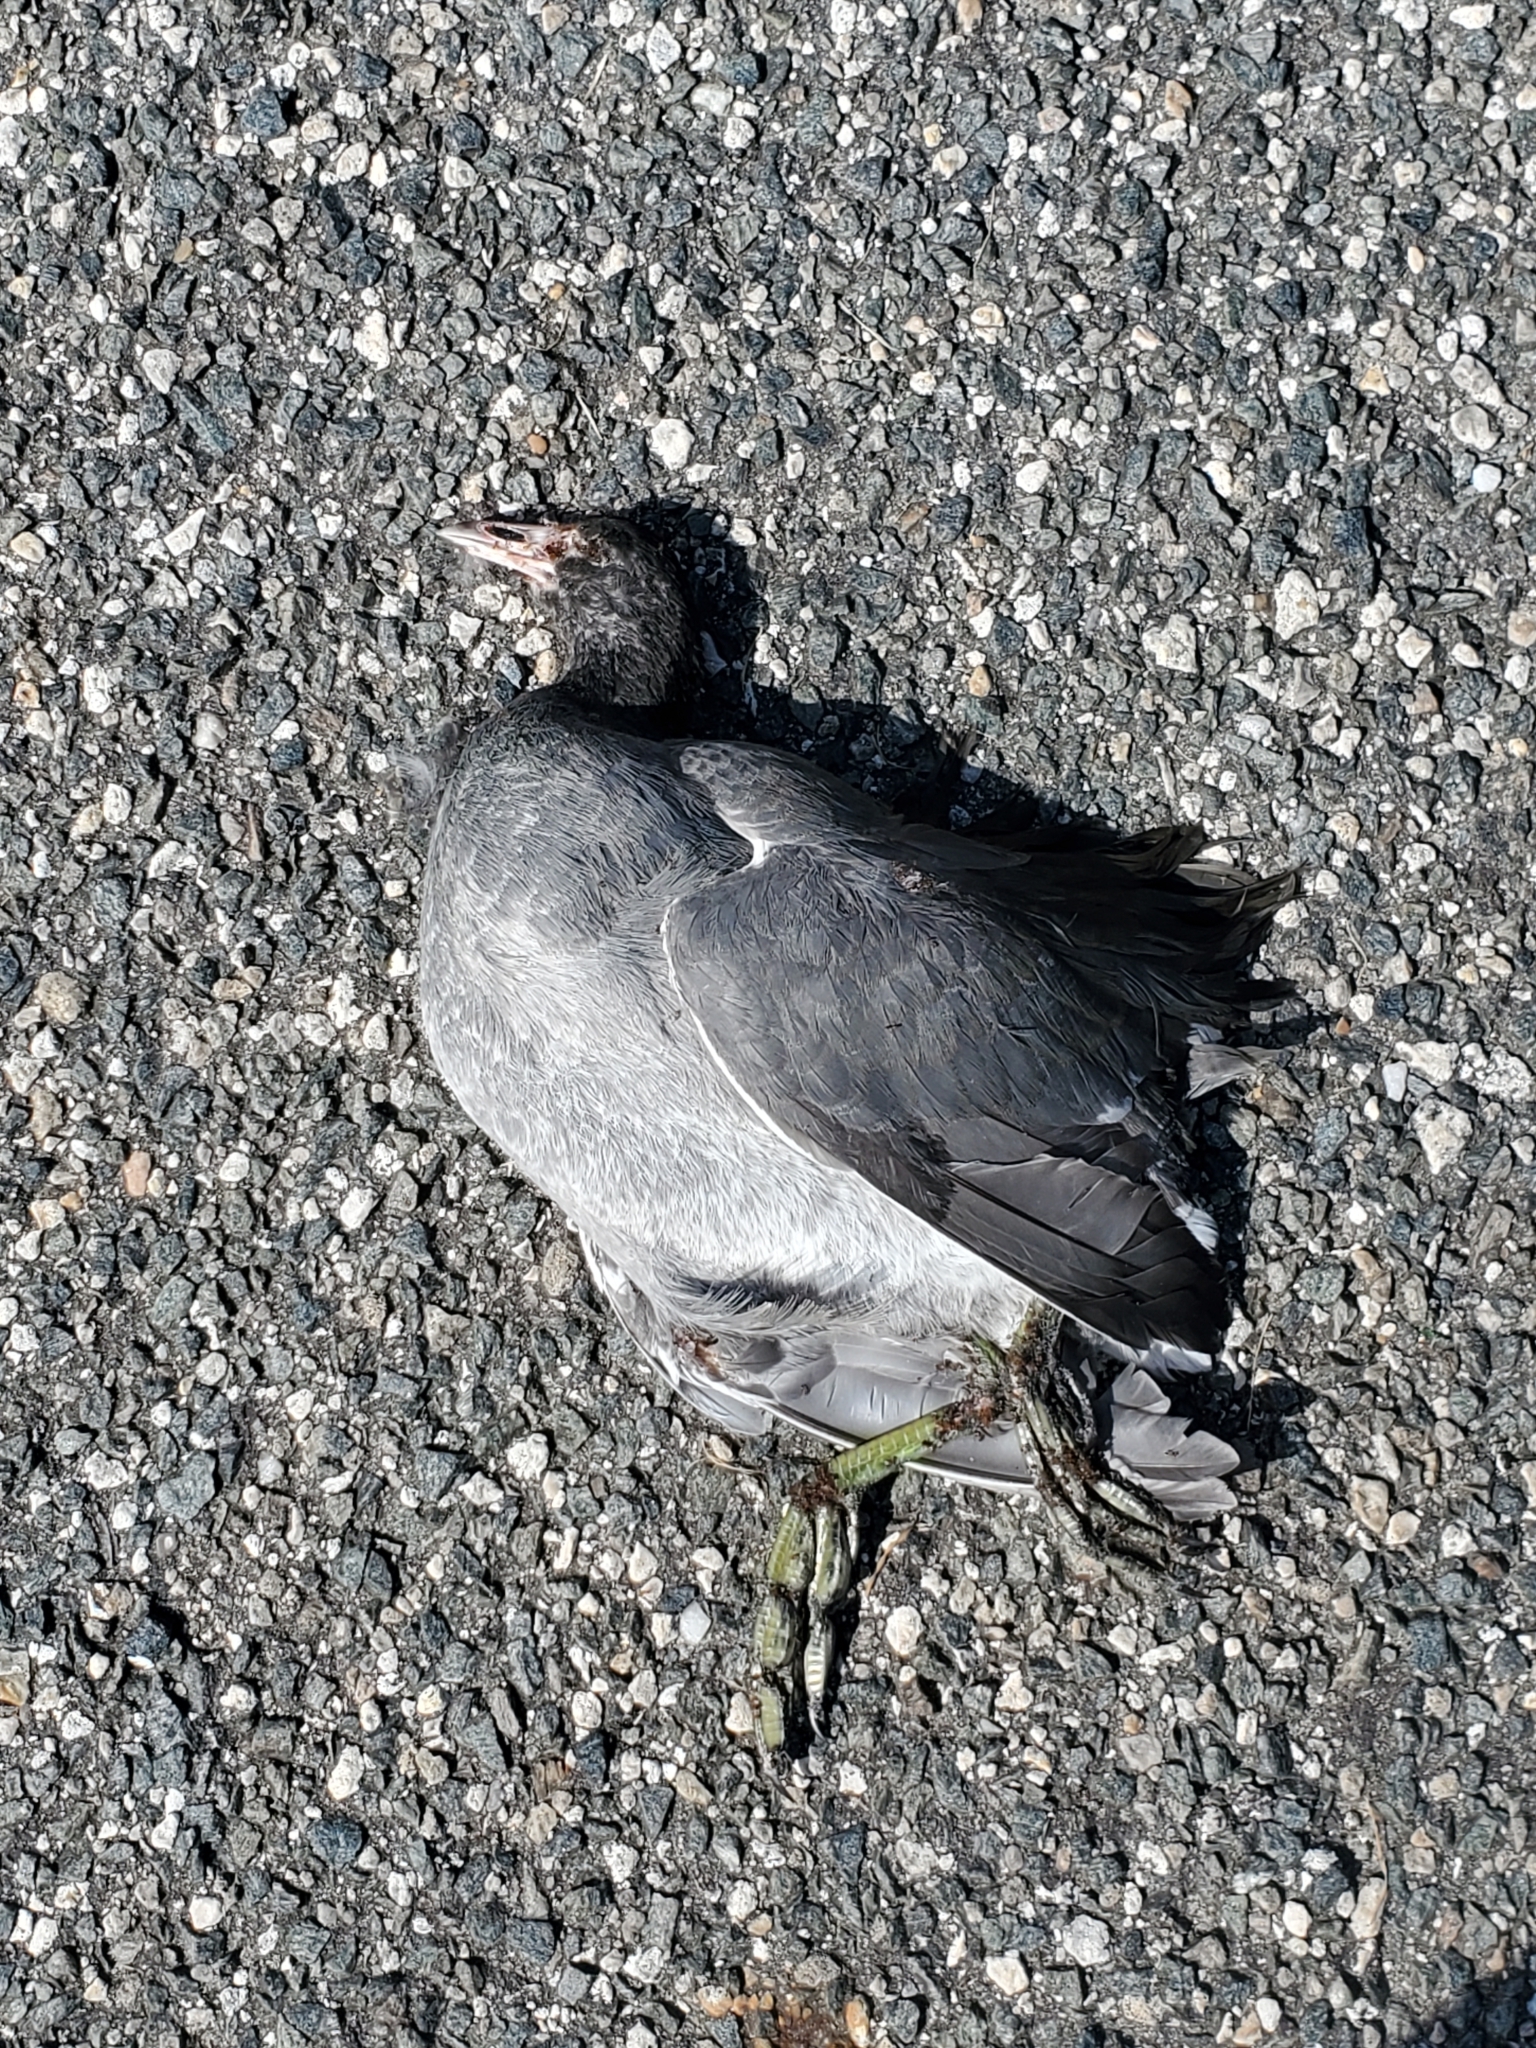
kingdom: Animalia
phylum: Chordata
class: Aves
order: Gruiformes
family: Rallidae
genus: Fulica
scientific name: Fulica americana
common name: American coot
